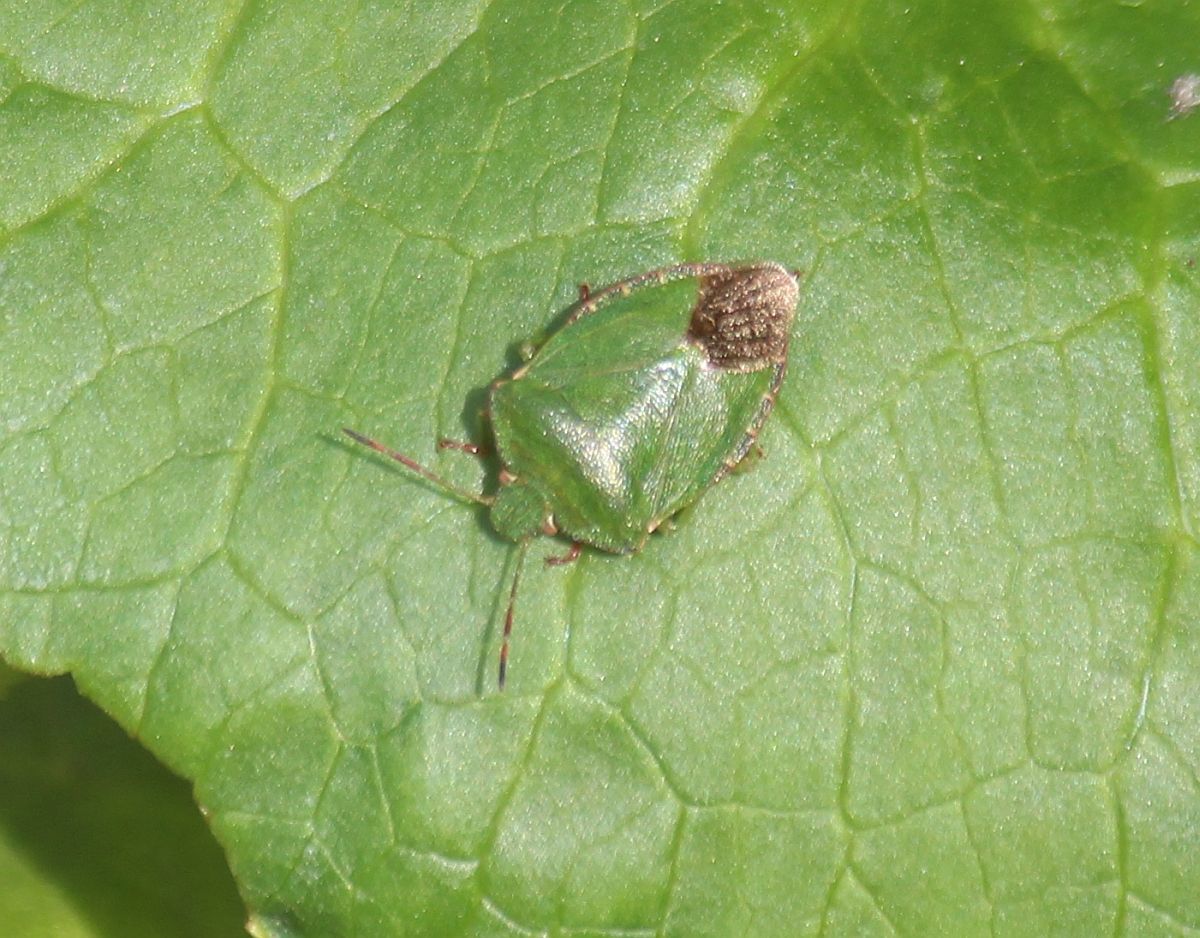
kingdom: Animalia
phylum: Arthropoda
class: Insecta
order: Hemiptera
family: Pentatomidae
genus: Palomena
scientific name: Palomena prasina
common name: Green shieldbug
